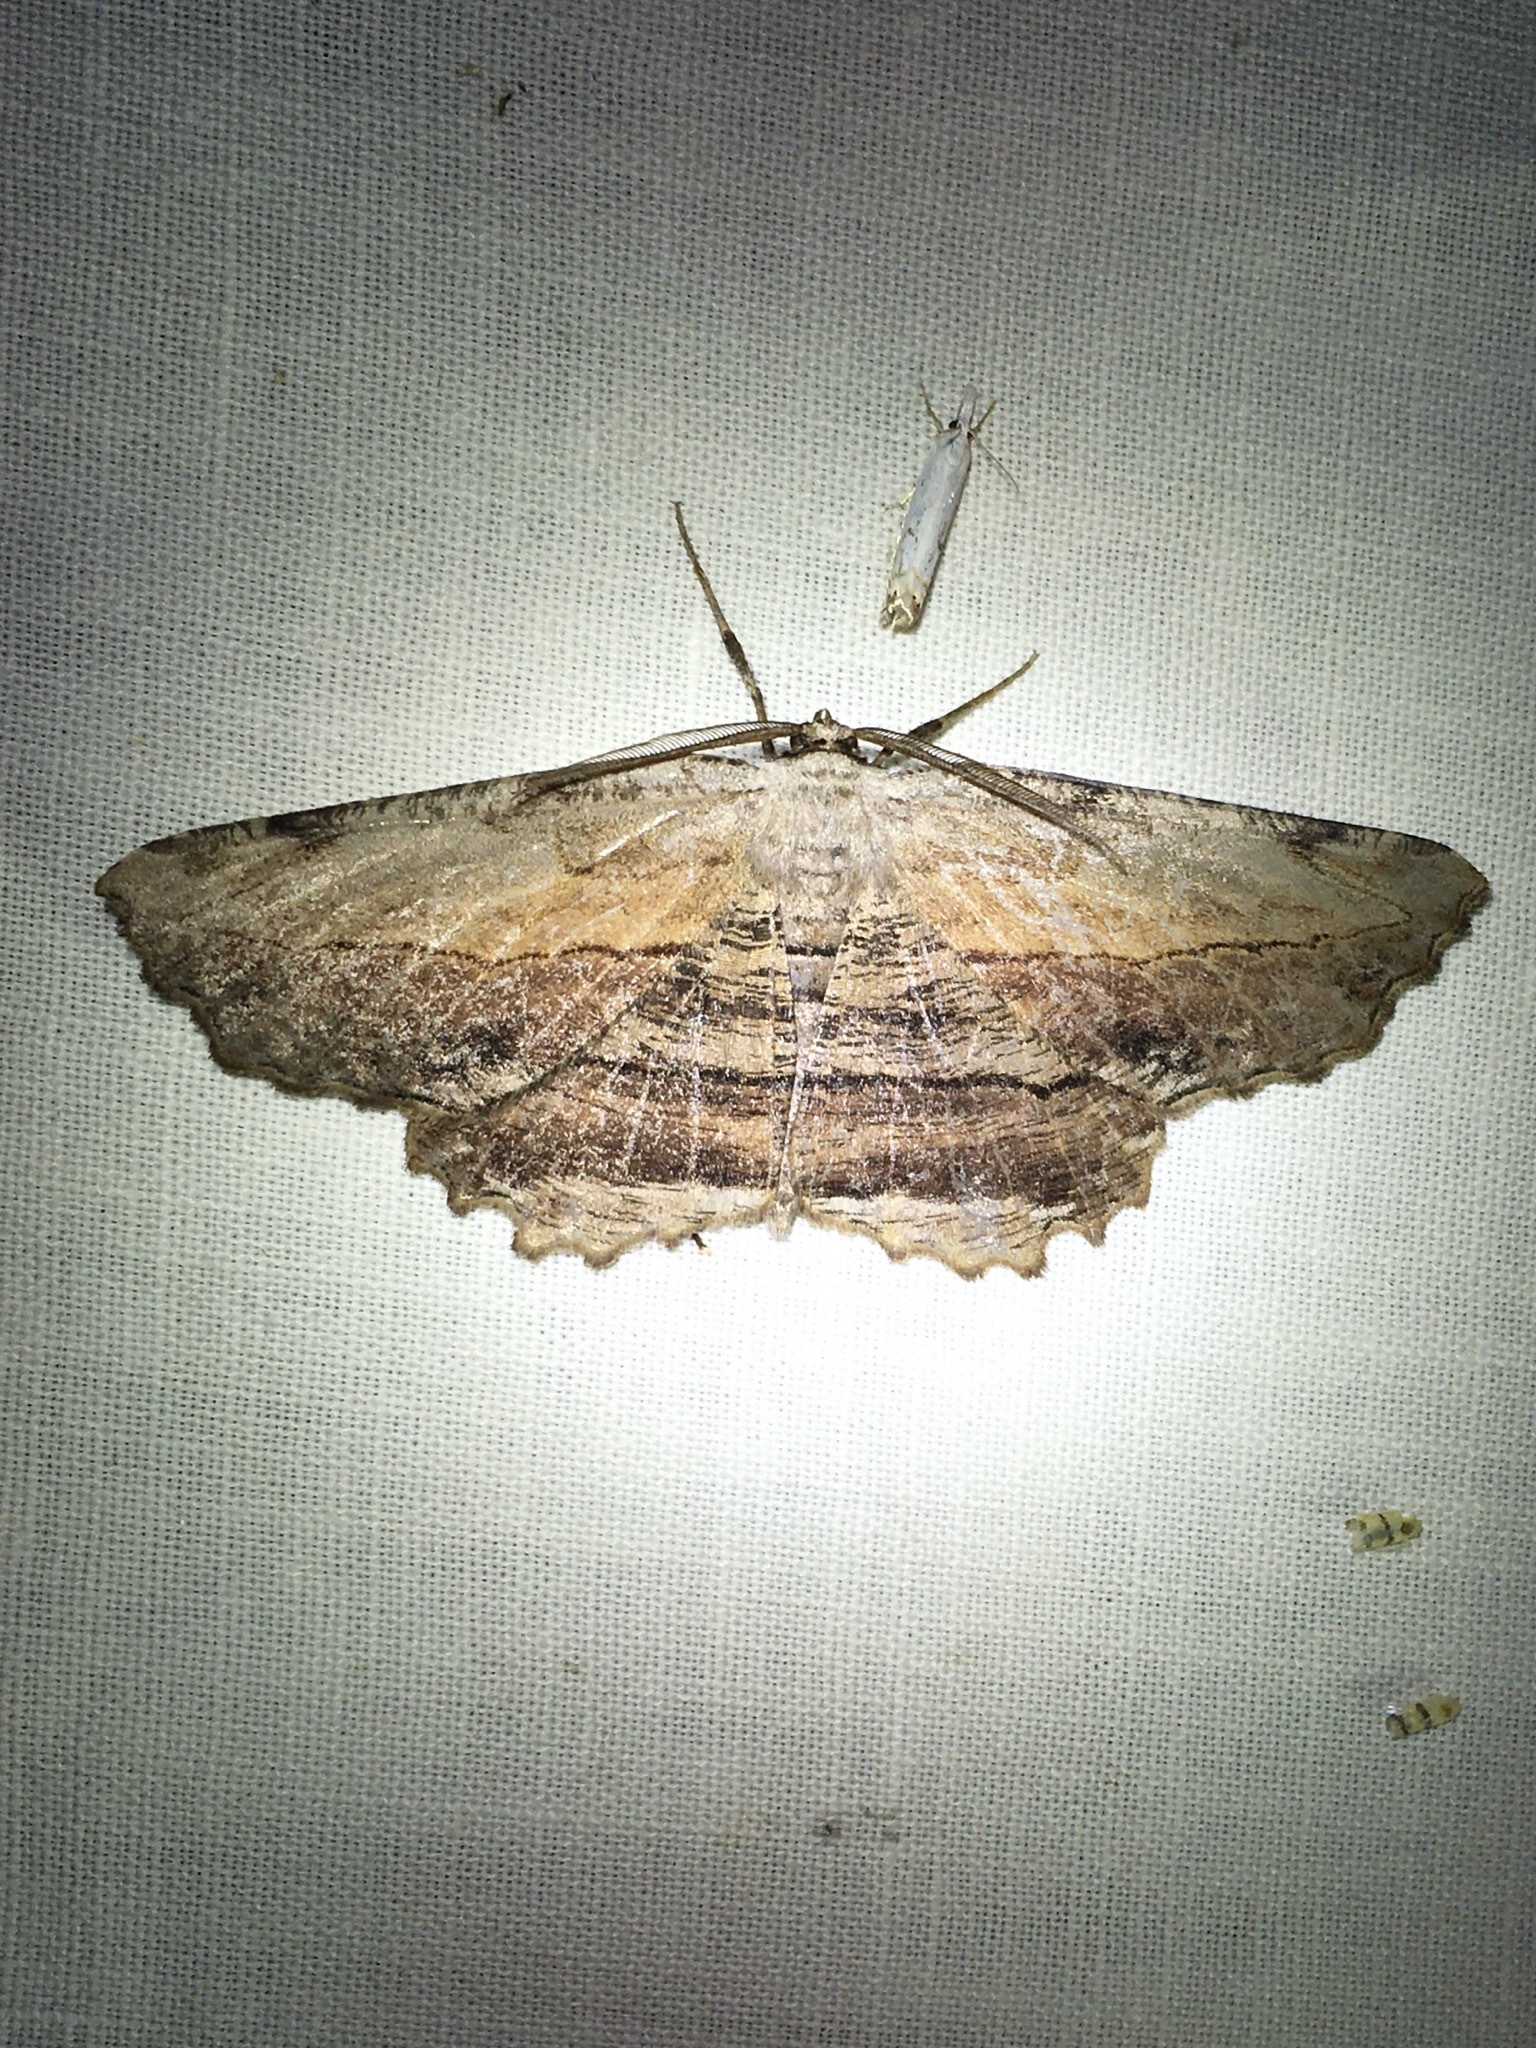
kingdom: Animalia
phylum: Arthropoda
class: Insecta
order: Lepidoptera
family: Geometridae
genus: Lytrosis
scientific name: Lytrosis unitaria
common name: Common lytrosis
